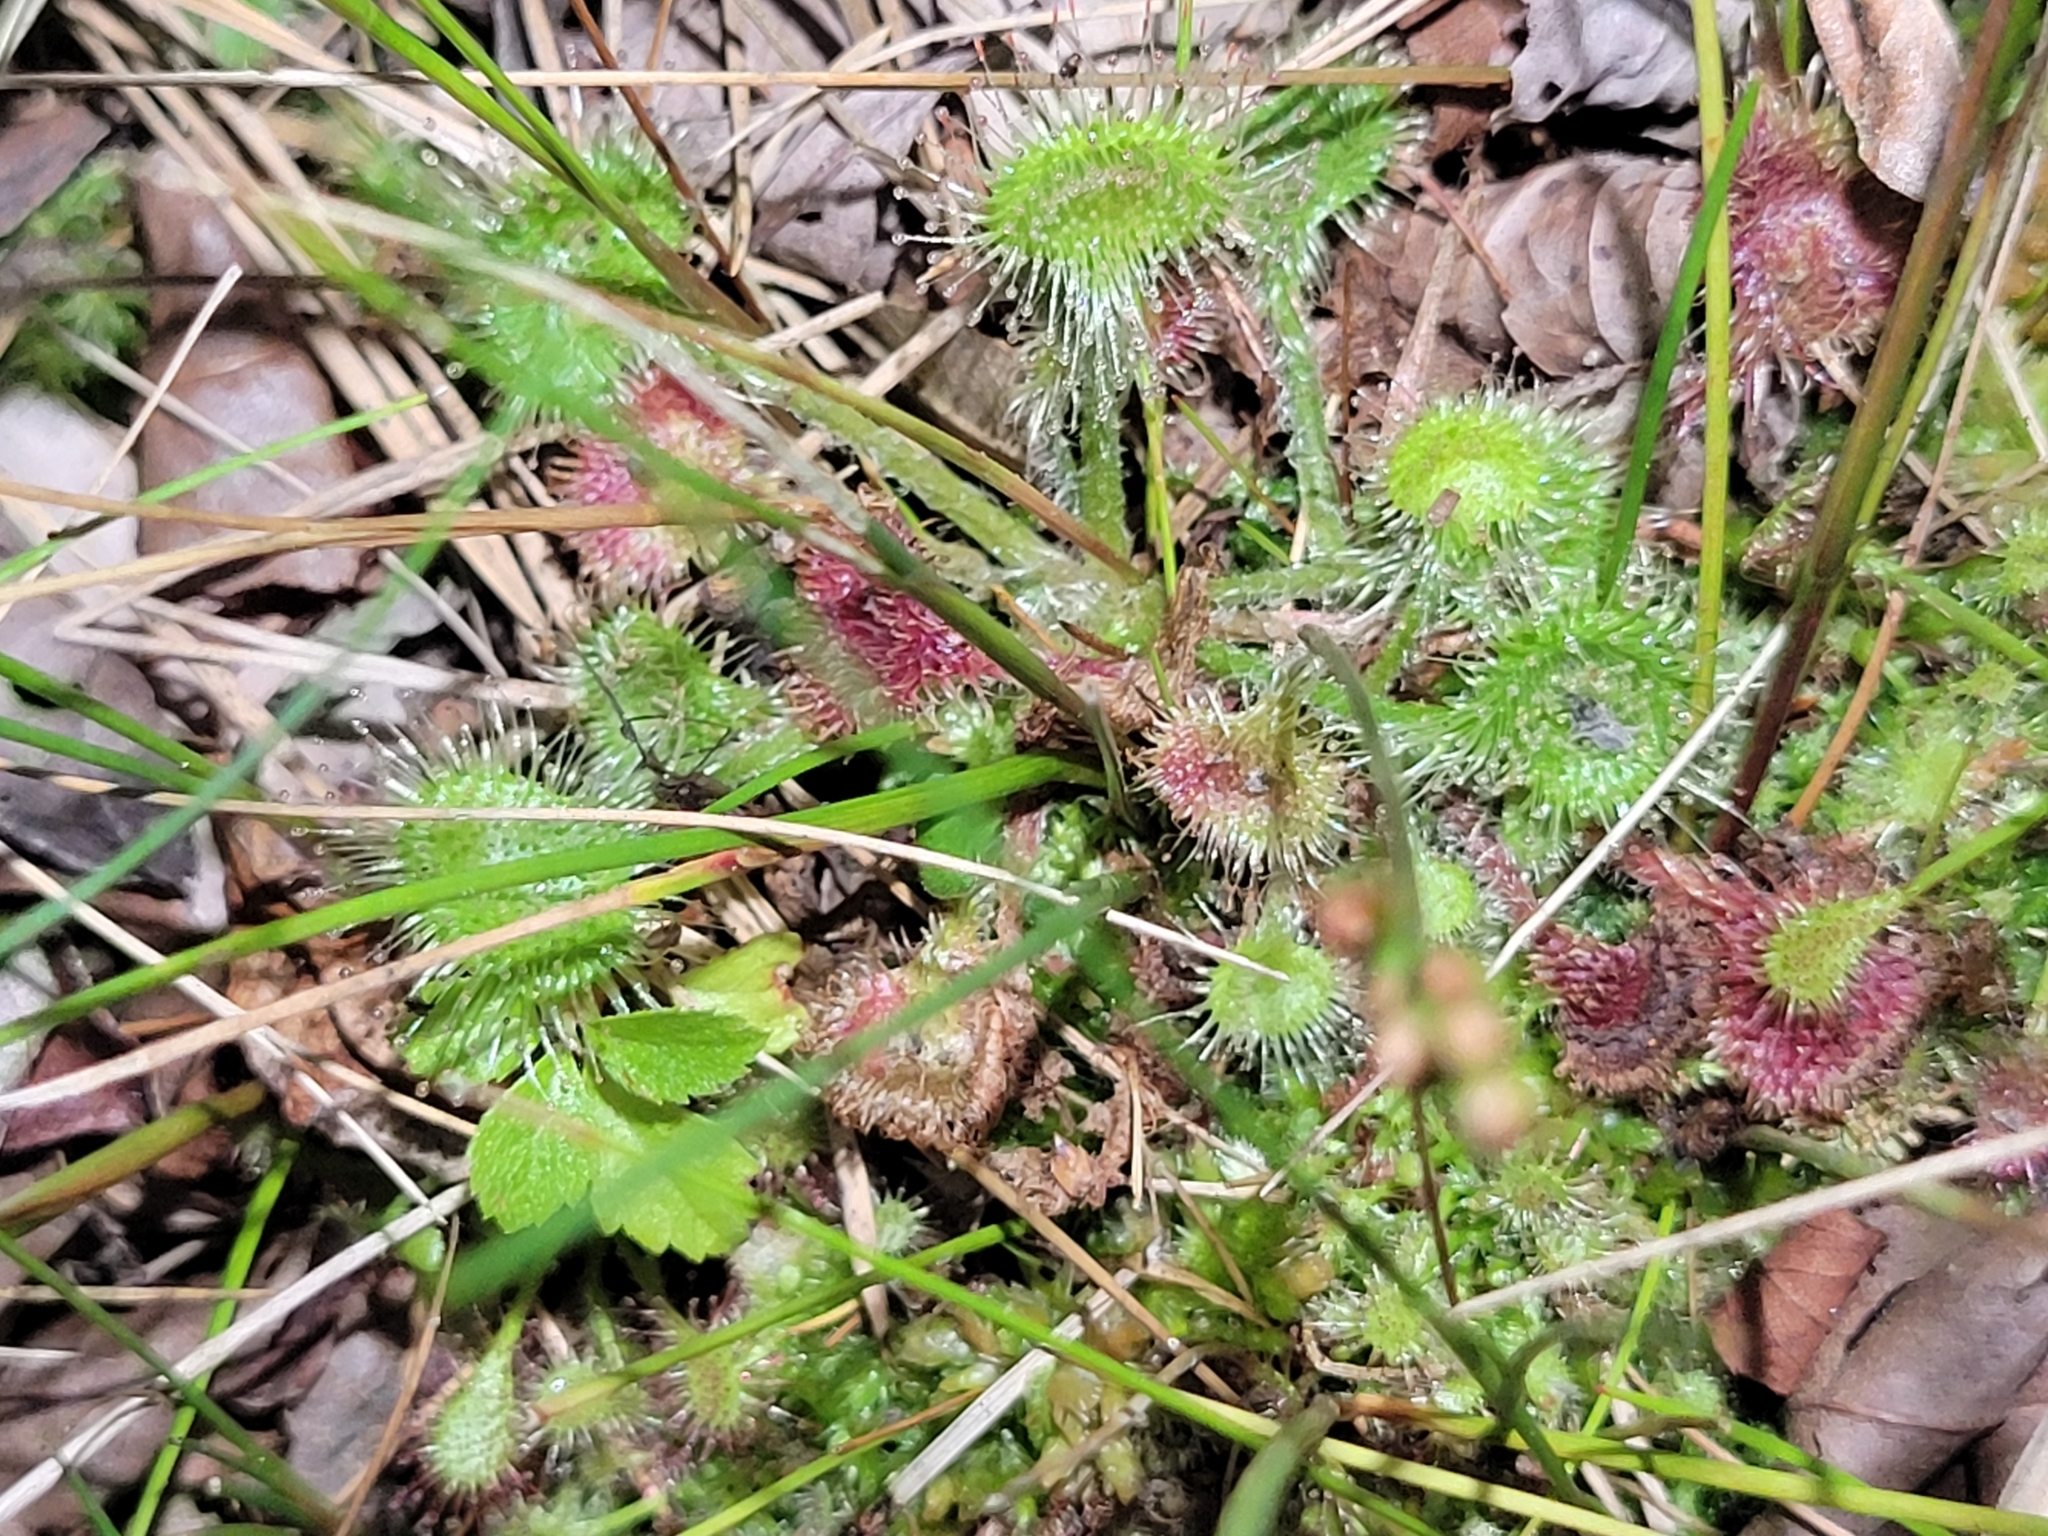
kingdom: Plantae
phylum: Tracheophyta
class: Magnoliopsida
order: Caryophyllales
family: Droseraceae
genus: Drosera
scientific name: Drosera rotundifolia
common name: Round-leaved sundew
